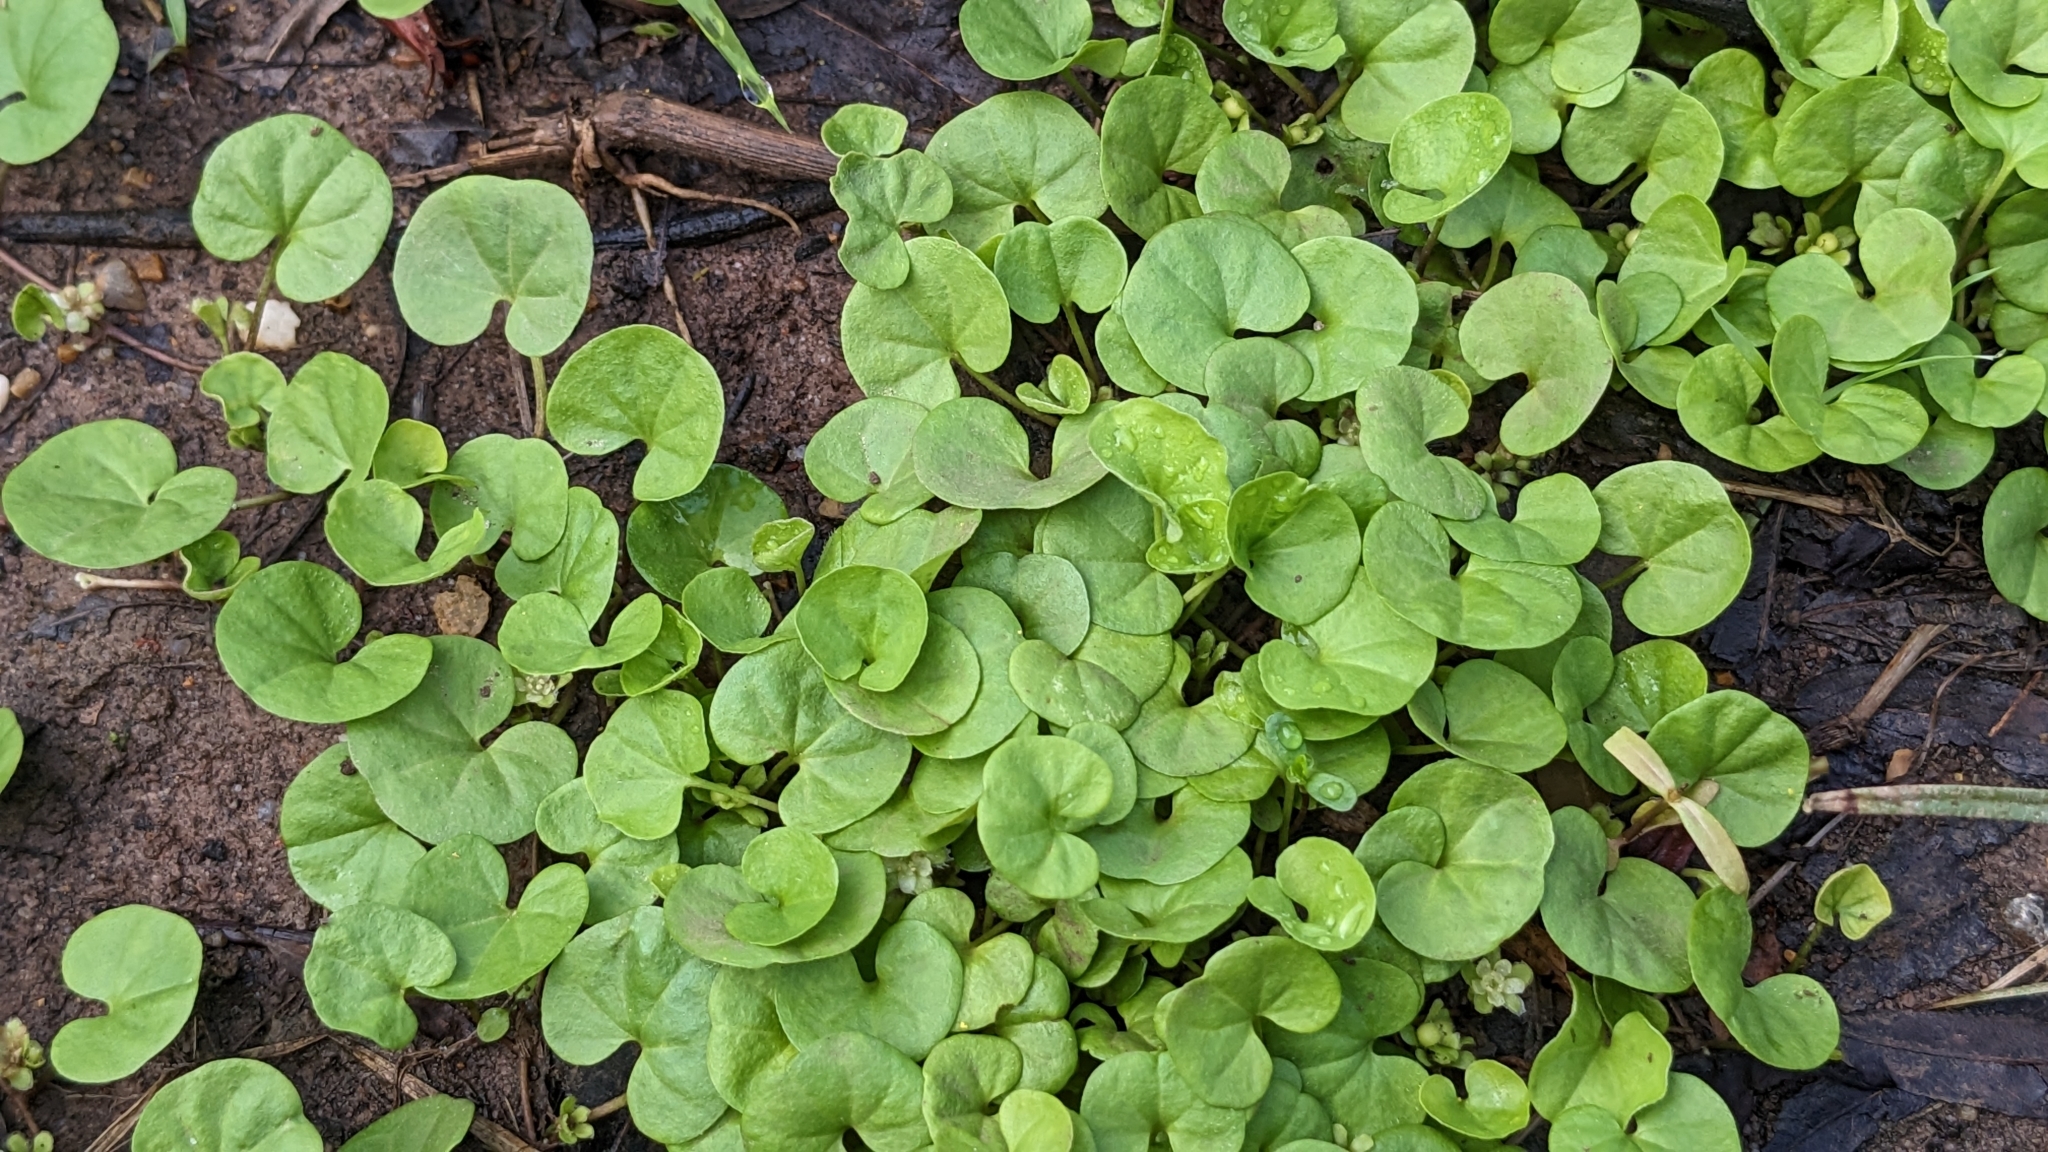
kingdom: Plantae
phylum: Tracheophyta
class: Magnoliopsida
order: Solanales
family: Convolvulaceae
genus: Dichondra
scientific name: Dichondra carolinensis
